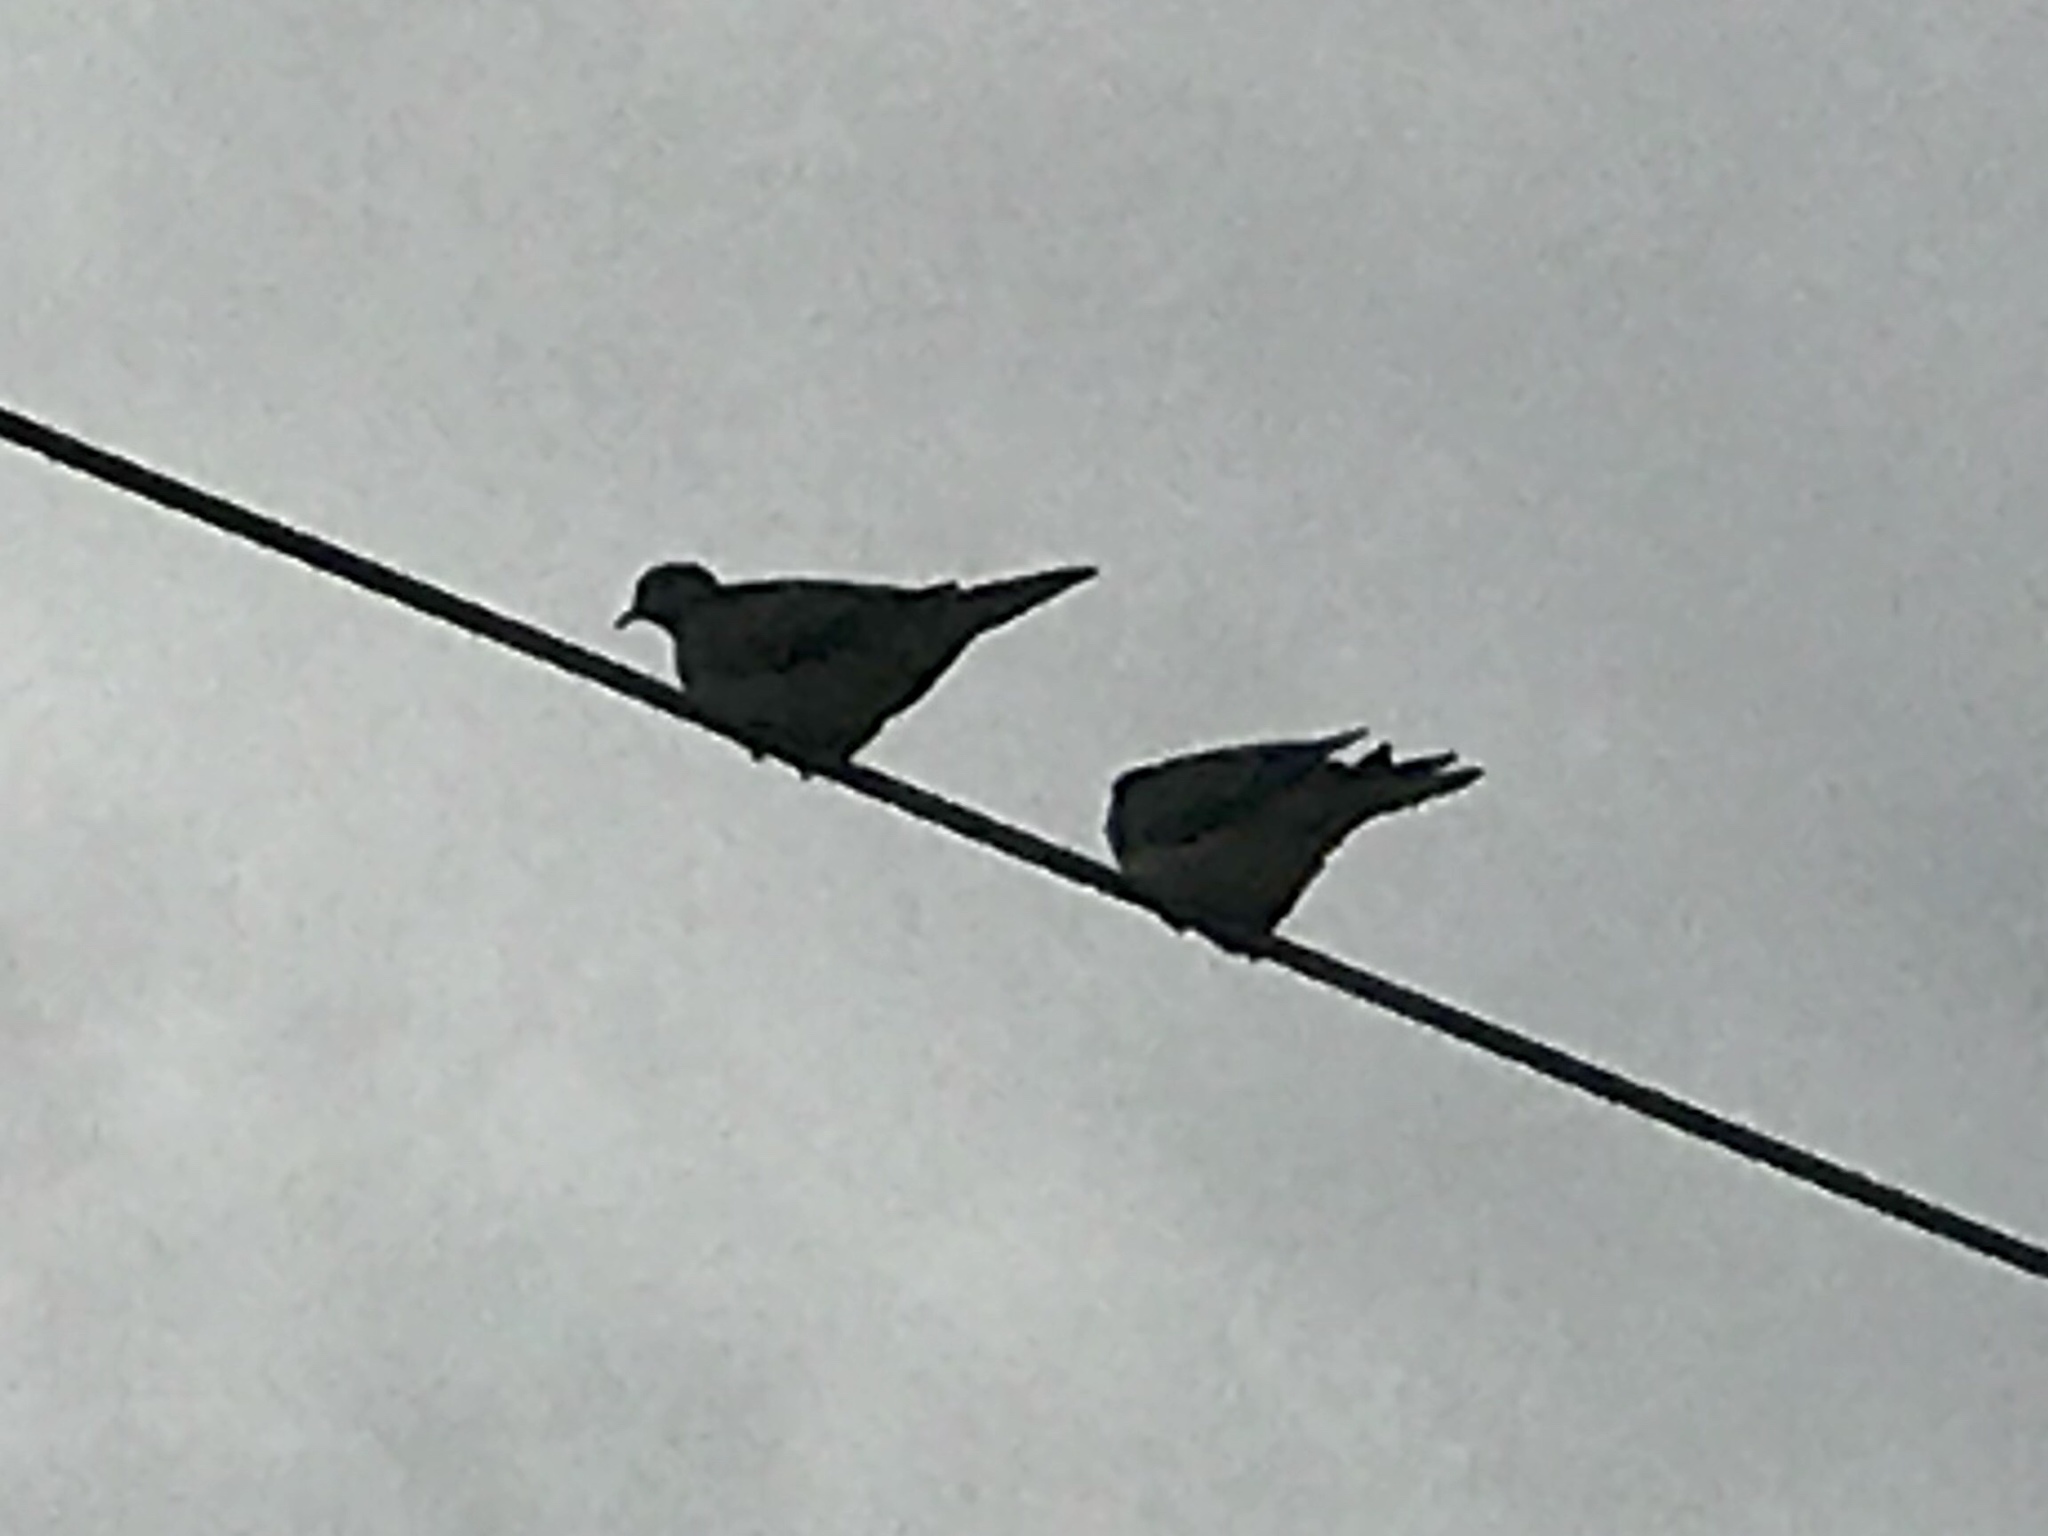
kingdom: Animalia
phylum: Chordata
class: Aves
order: Columbiformes
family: Columbidae
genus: Zenaida
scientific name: Zenaida macroura
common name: Mourning dove
